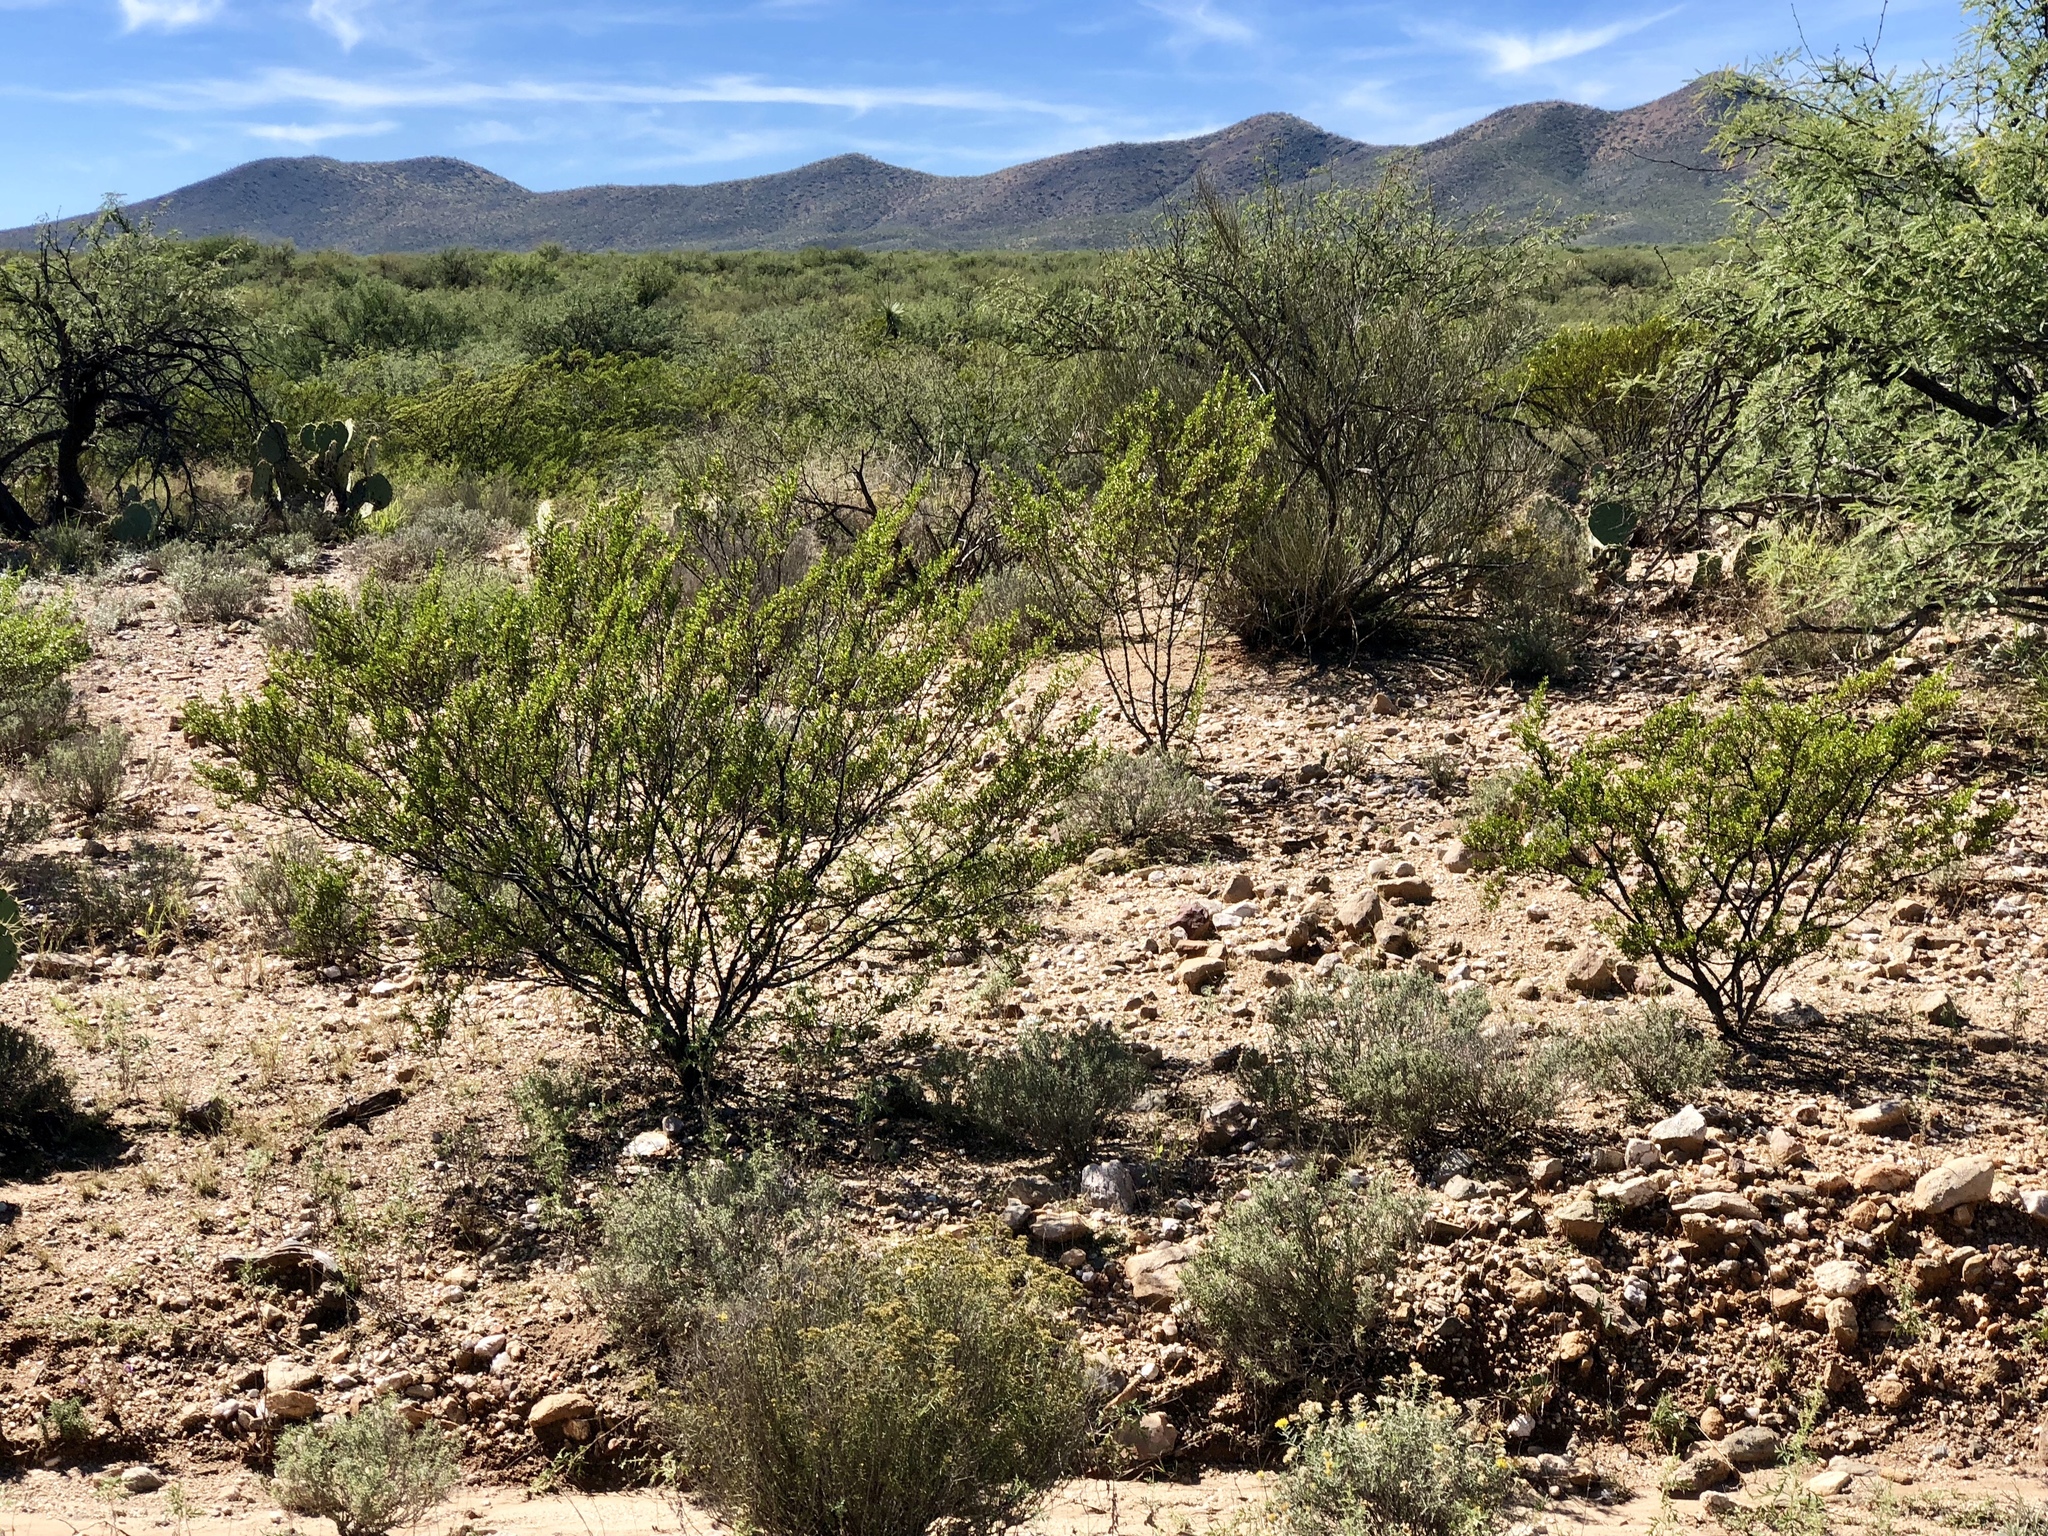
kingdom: Plantae
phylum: Tracheophyta
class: Magnoliopsida
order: Zygophyllales
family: Zygophyllaceae
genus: Larrea
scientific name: Larrea tridentata
